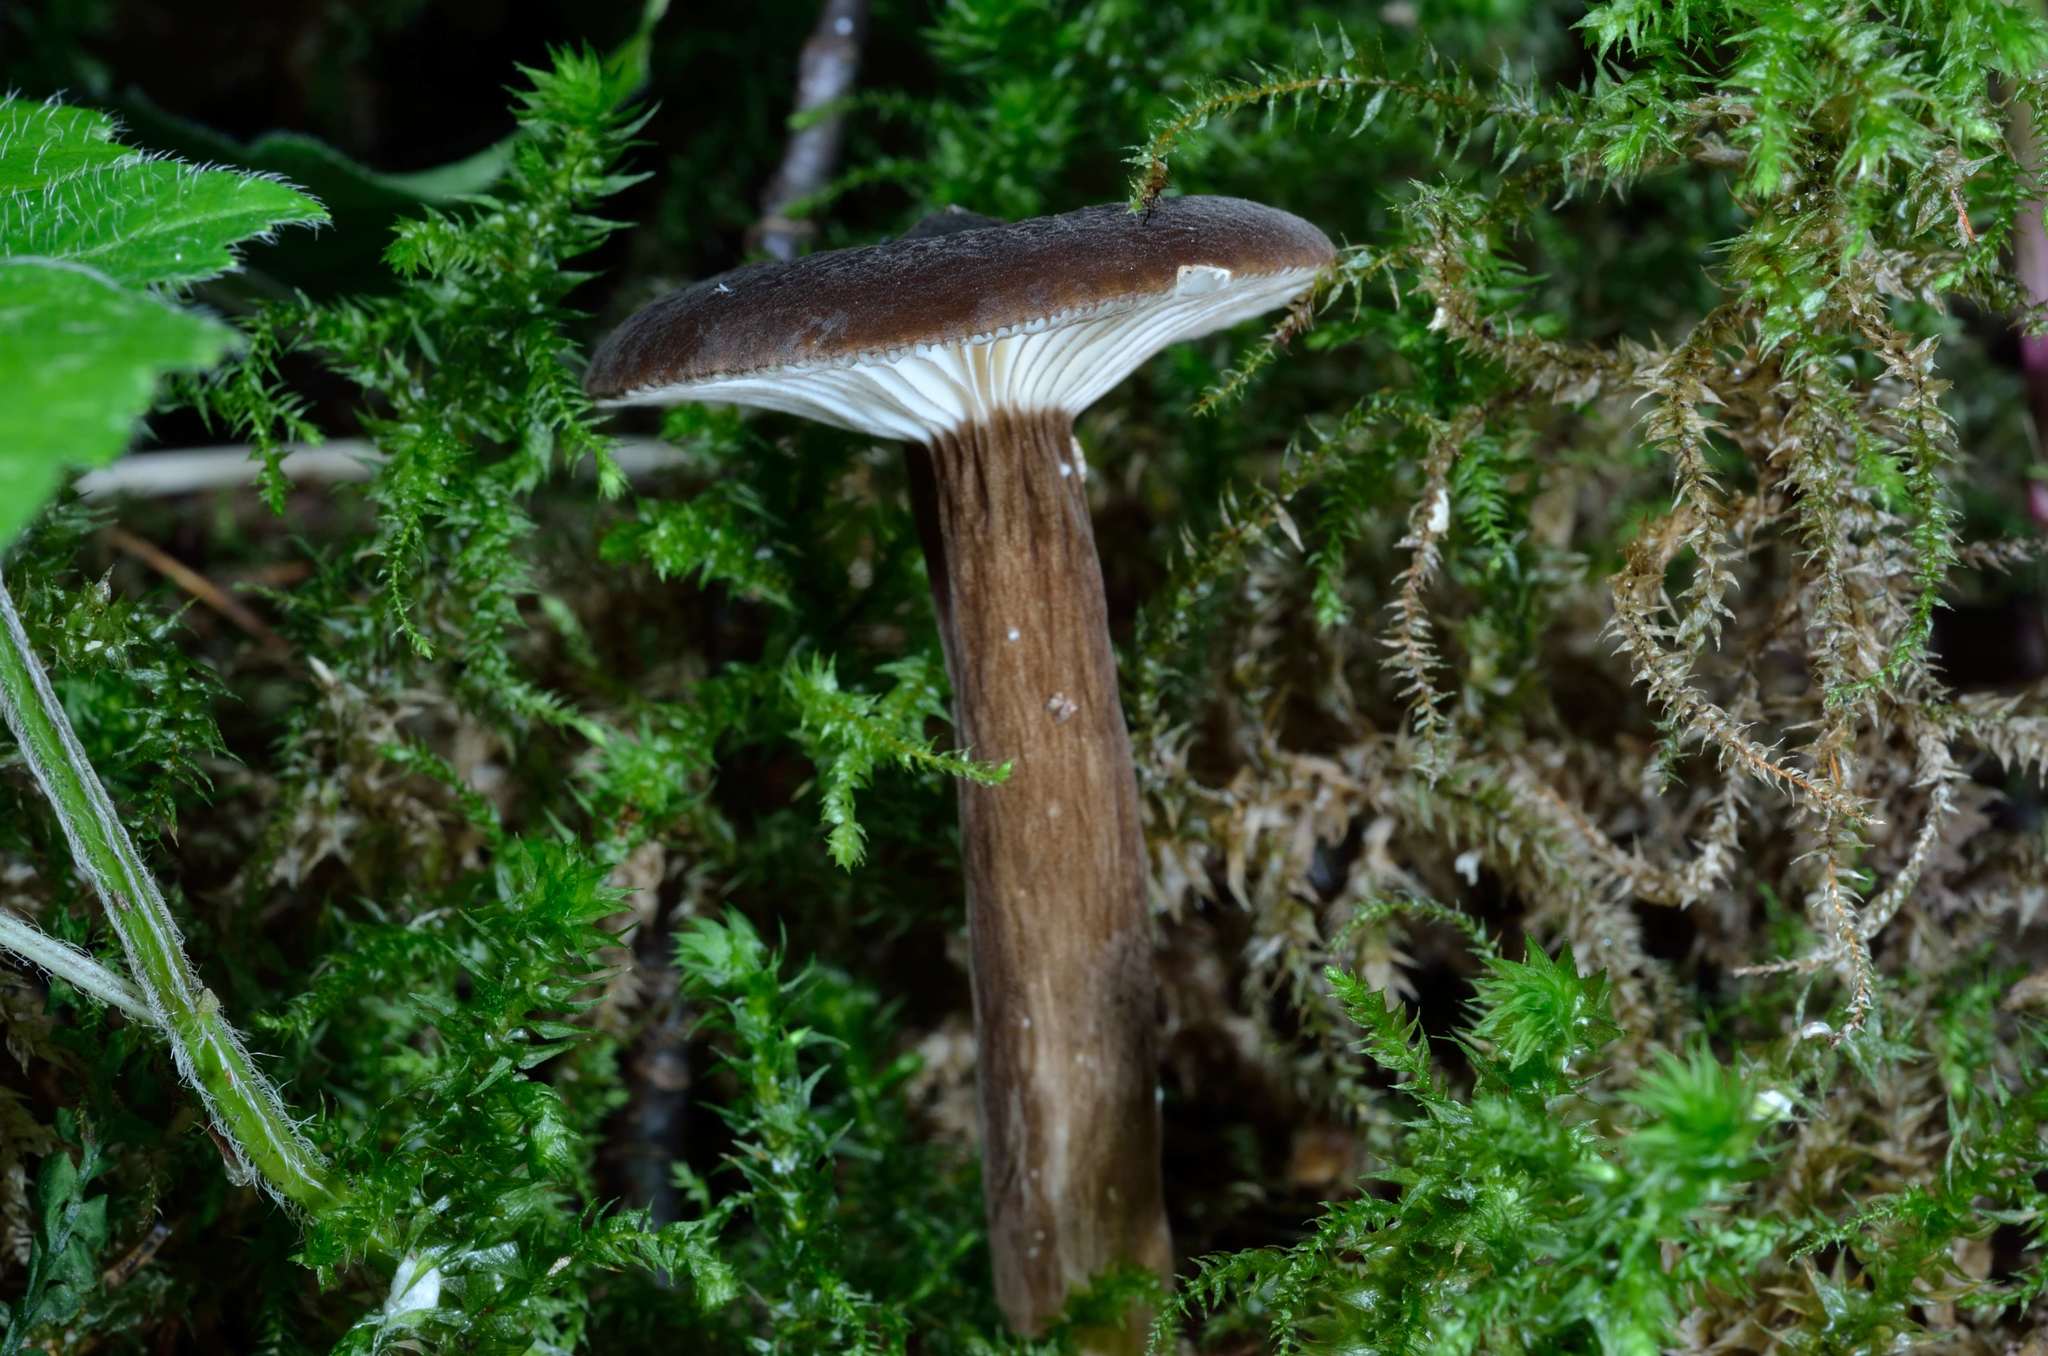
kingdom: Fungi
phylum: Basidiomycota
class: Agaricomycetes
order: Russulales
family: Russulaceae
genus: Lactarius
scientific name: Lactarius lignyotus
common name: Velvet milkcap
